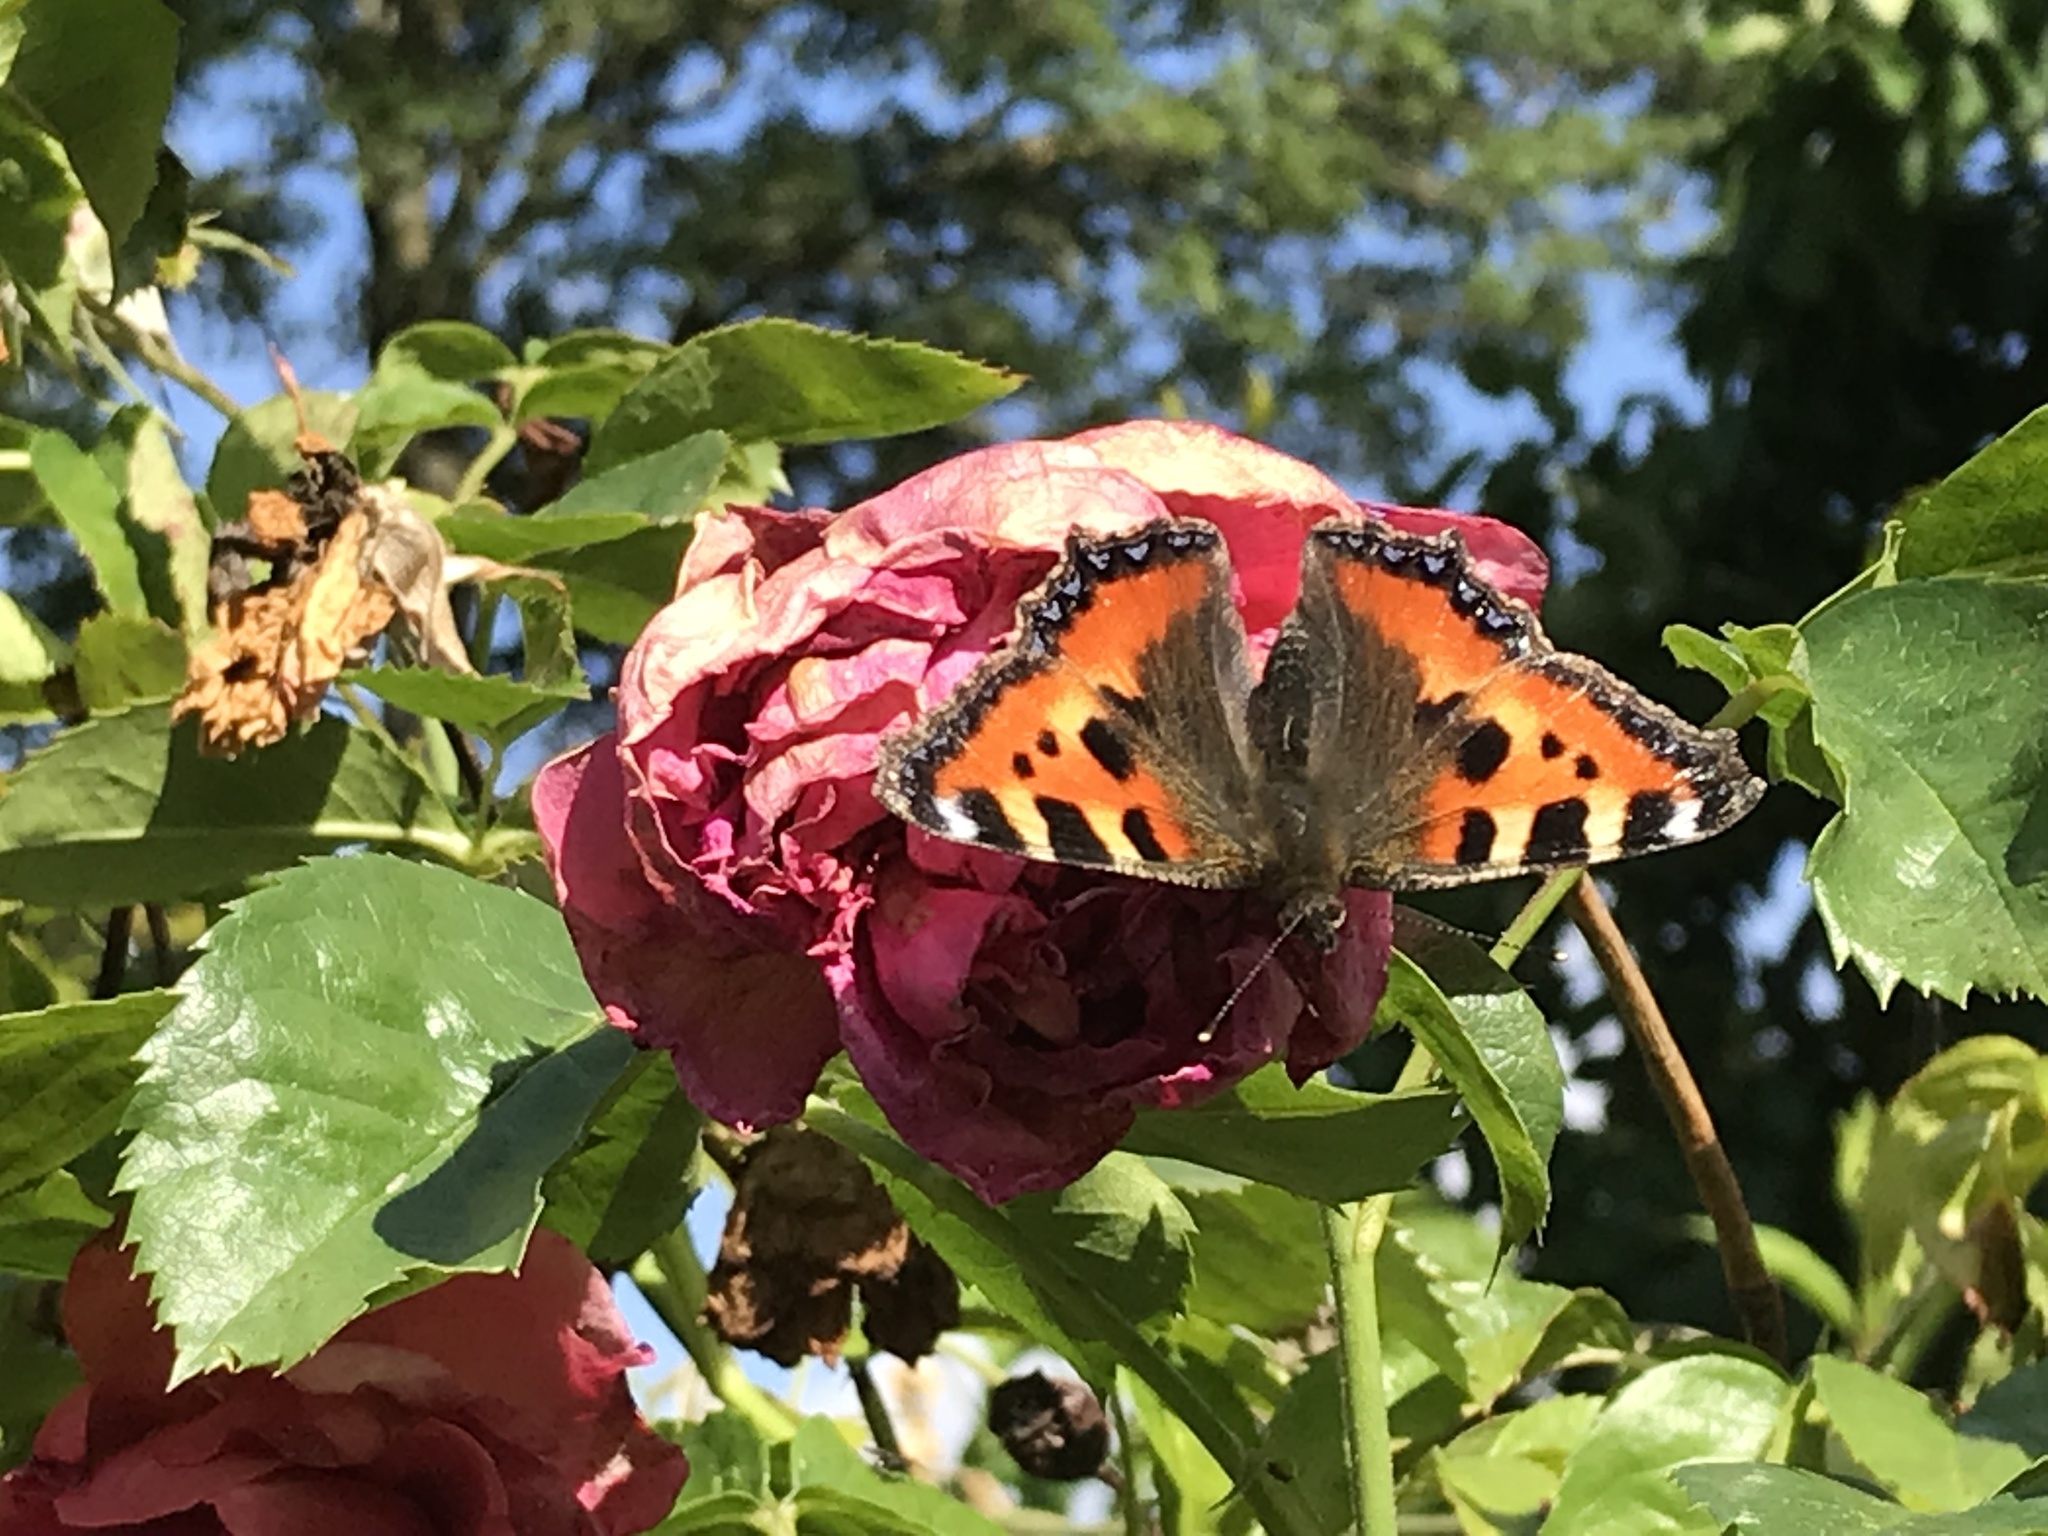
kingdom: Animalia
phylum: Arthropoda
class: Insecta
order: Lepidoptera
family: Nymphalidae
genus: Aglais
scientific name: Aglais urticae
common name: Small tortoiseshell
